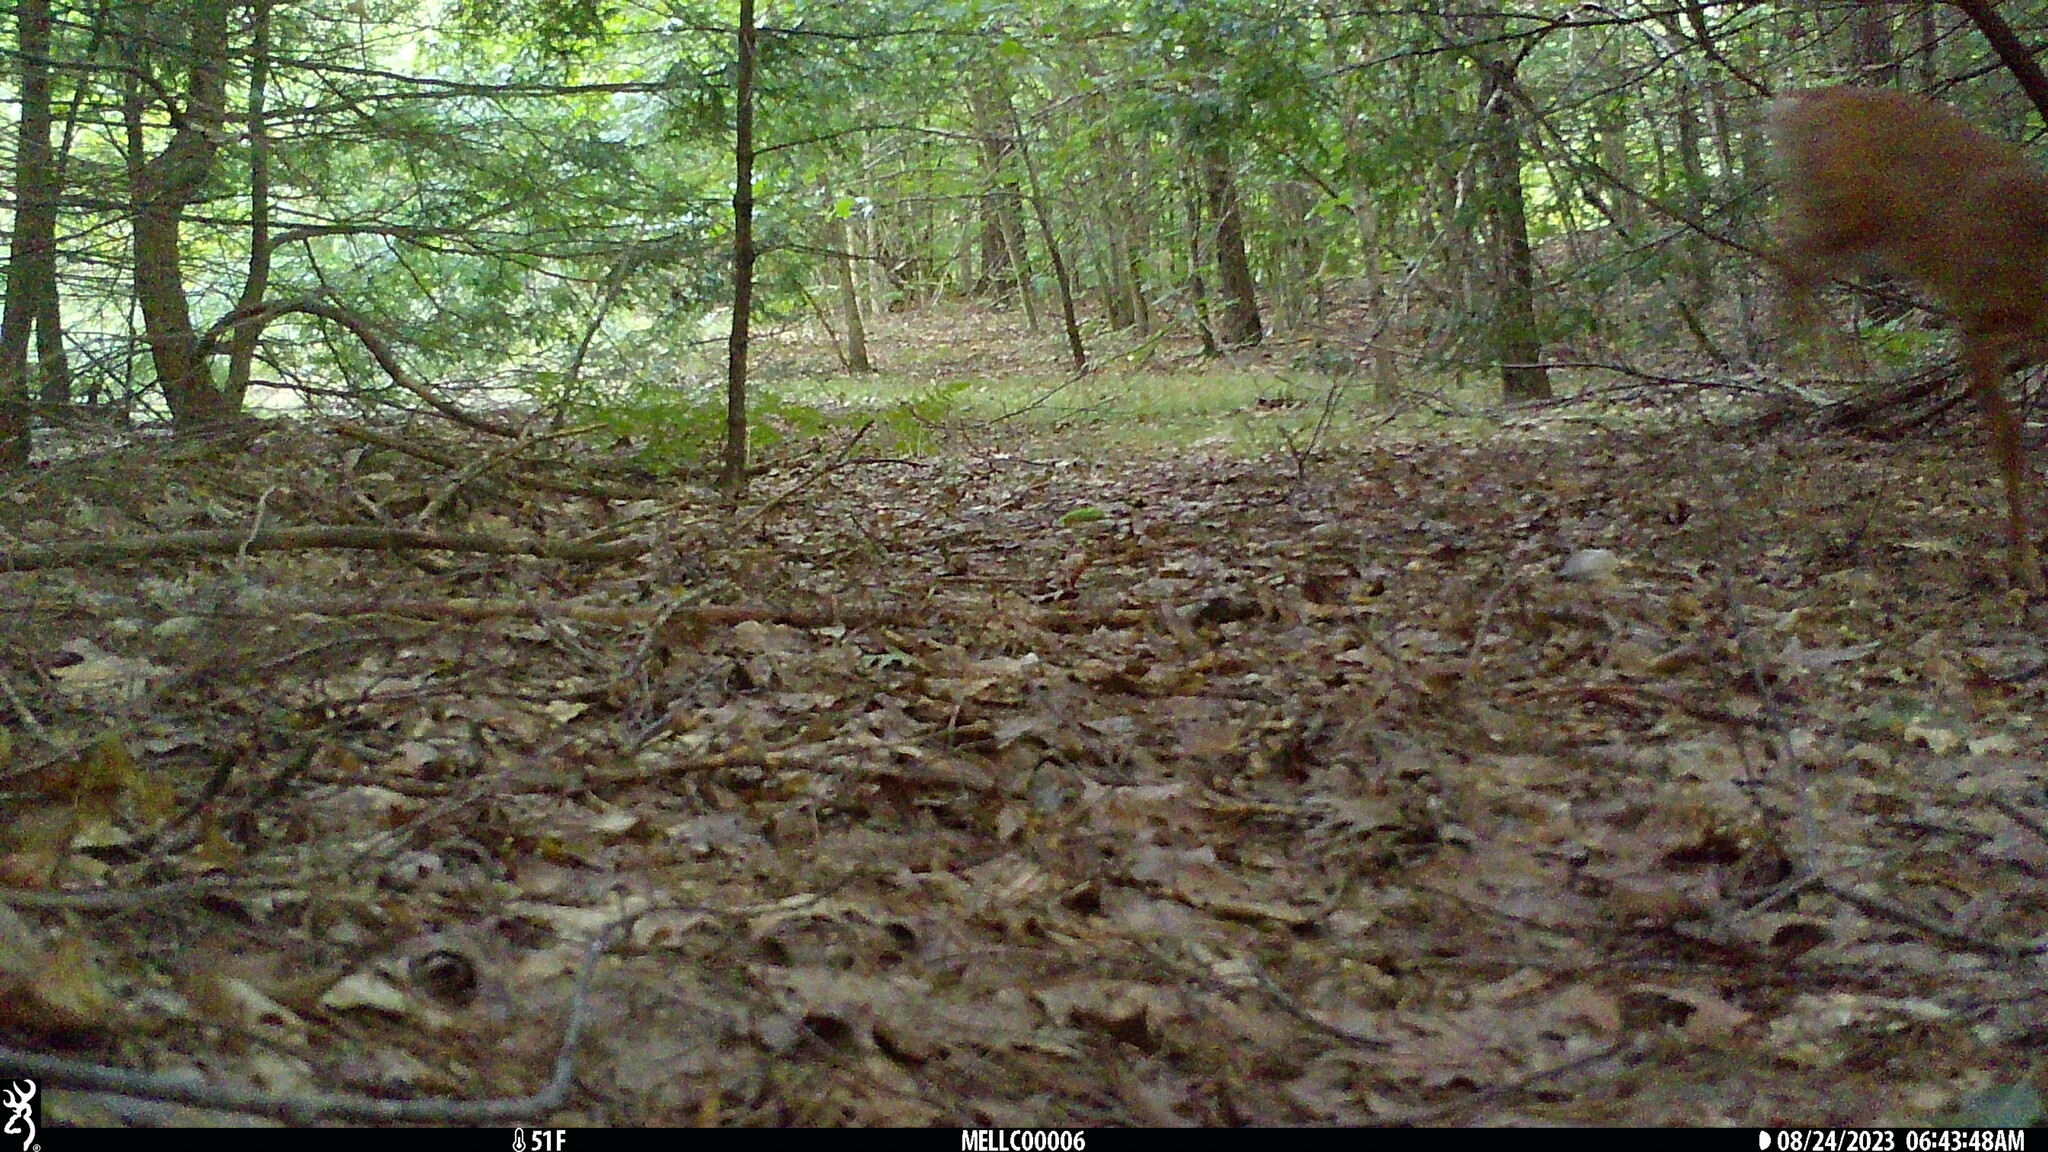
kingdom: Animalia
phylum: Chordata
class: Mammalia
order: Artiodactyla
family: Cervidae
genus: Odocoileus
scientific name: Odocoileus virginianus
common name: White-tailed deer
